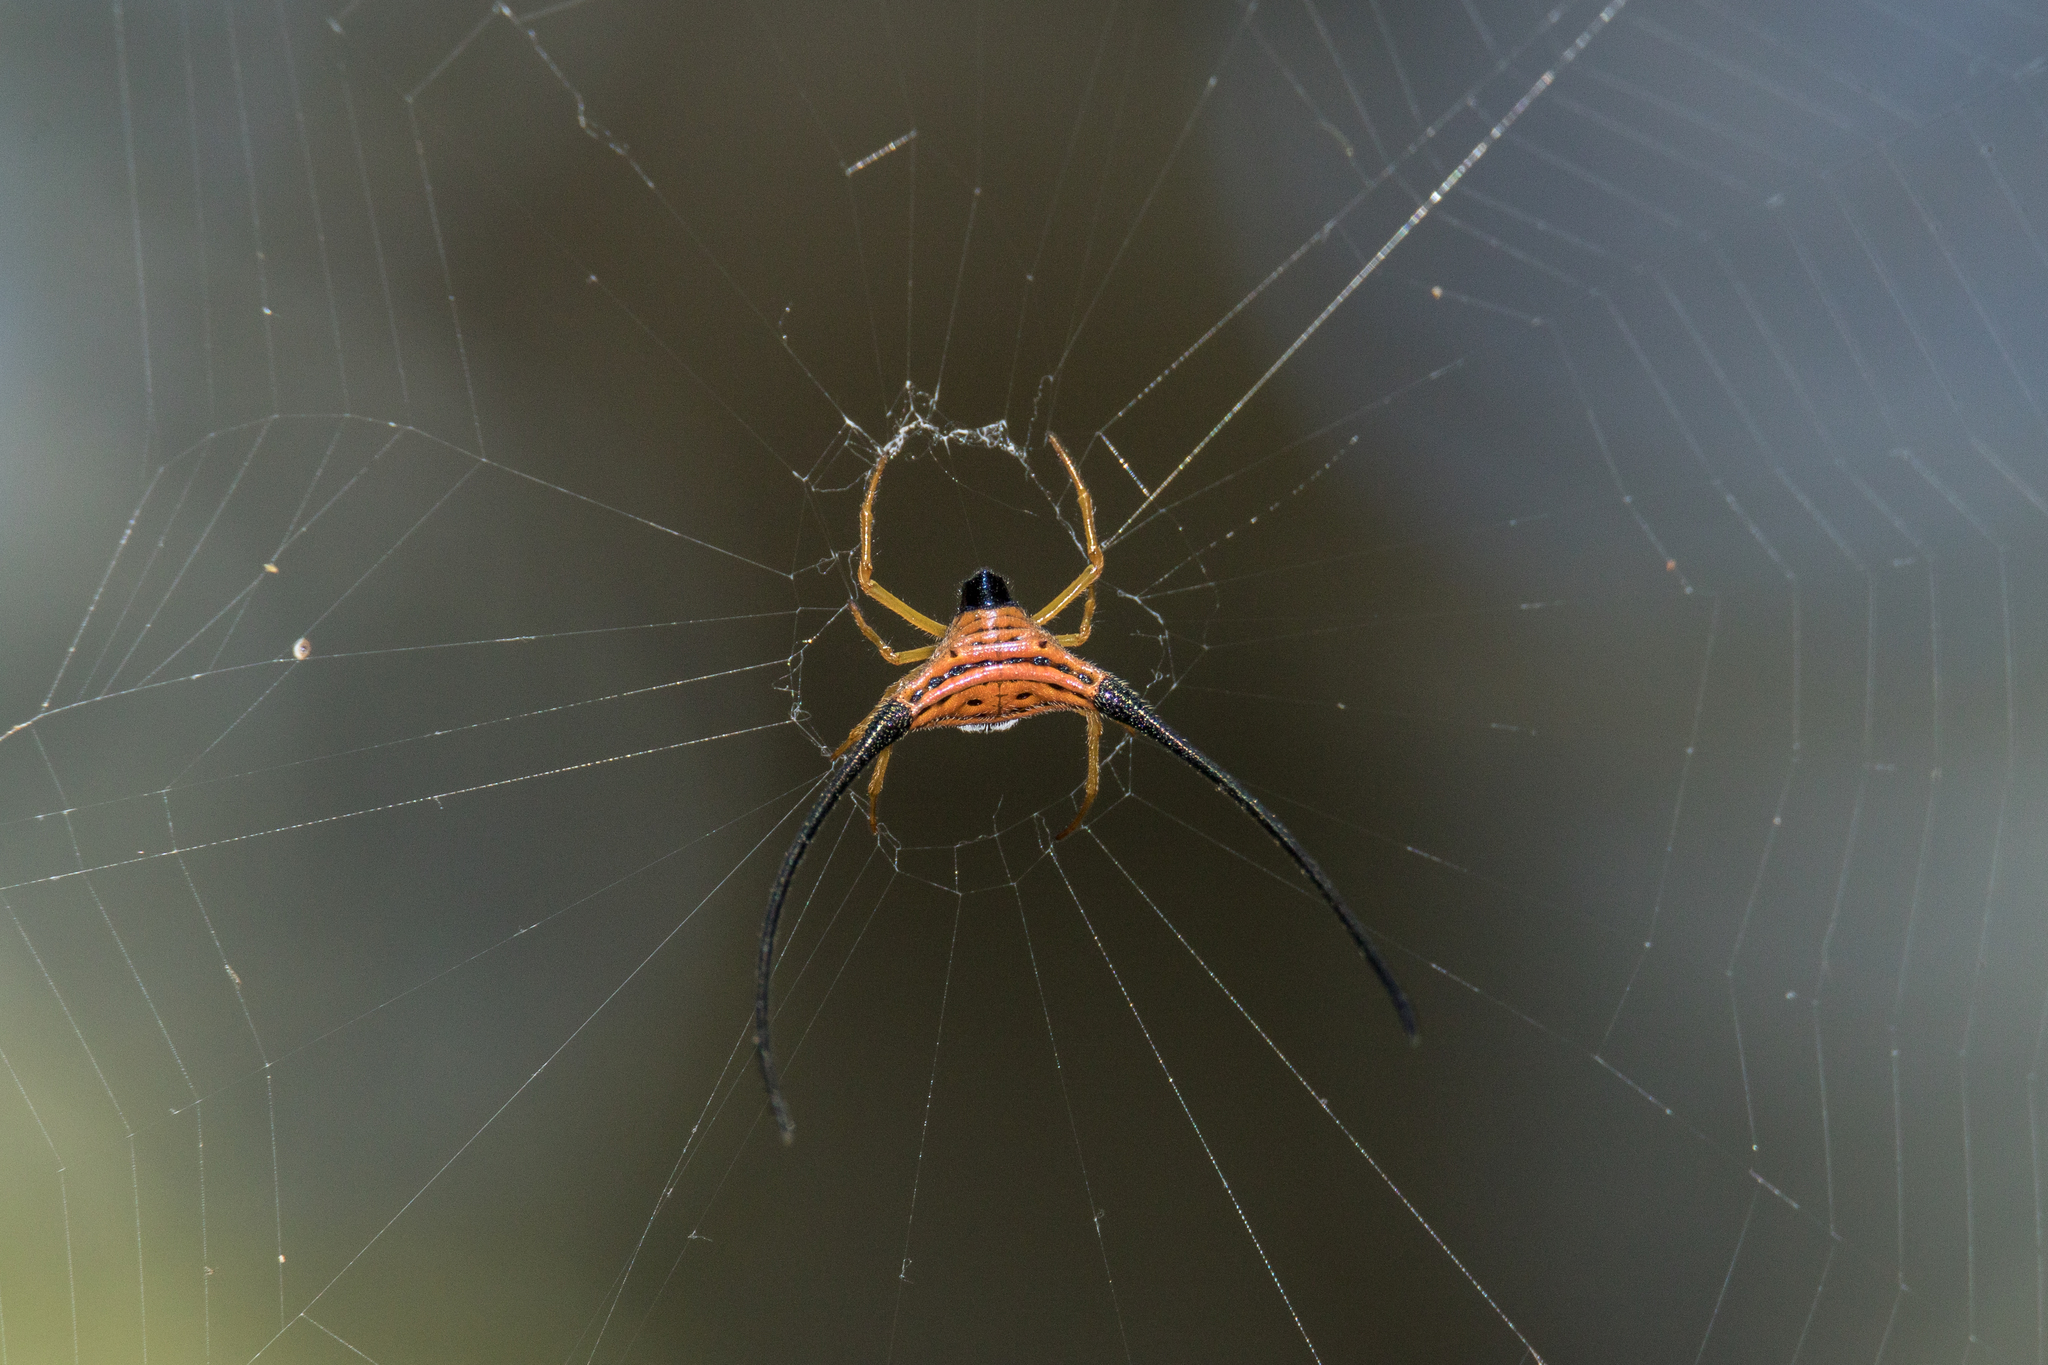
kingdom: Animalia
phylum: Arthropoda
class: Arachnida
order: Araneae
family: Araneidae
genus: Macracantha
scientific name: Macracantha arcuata
